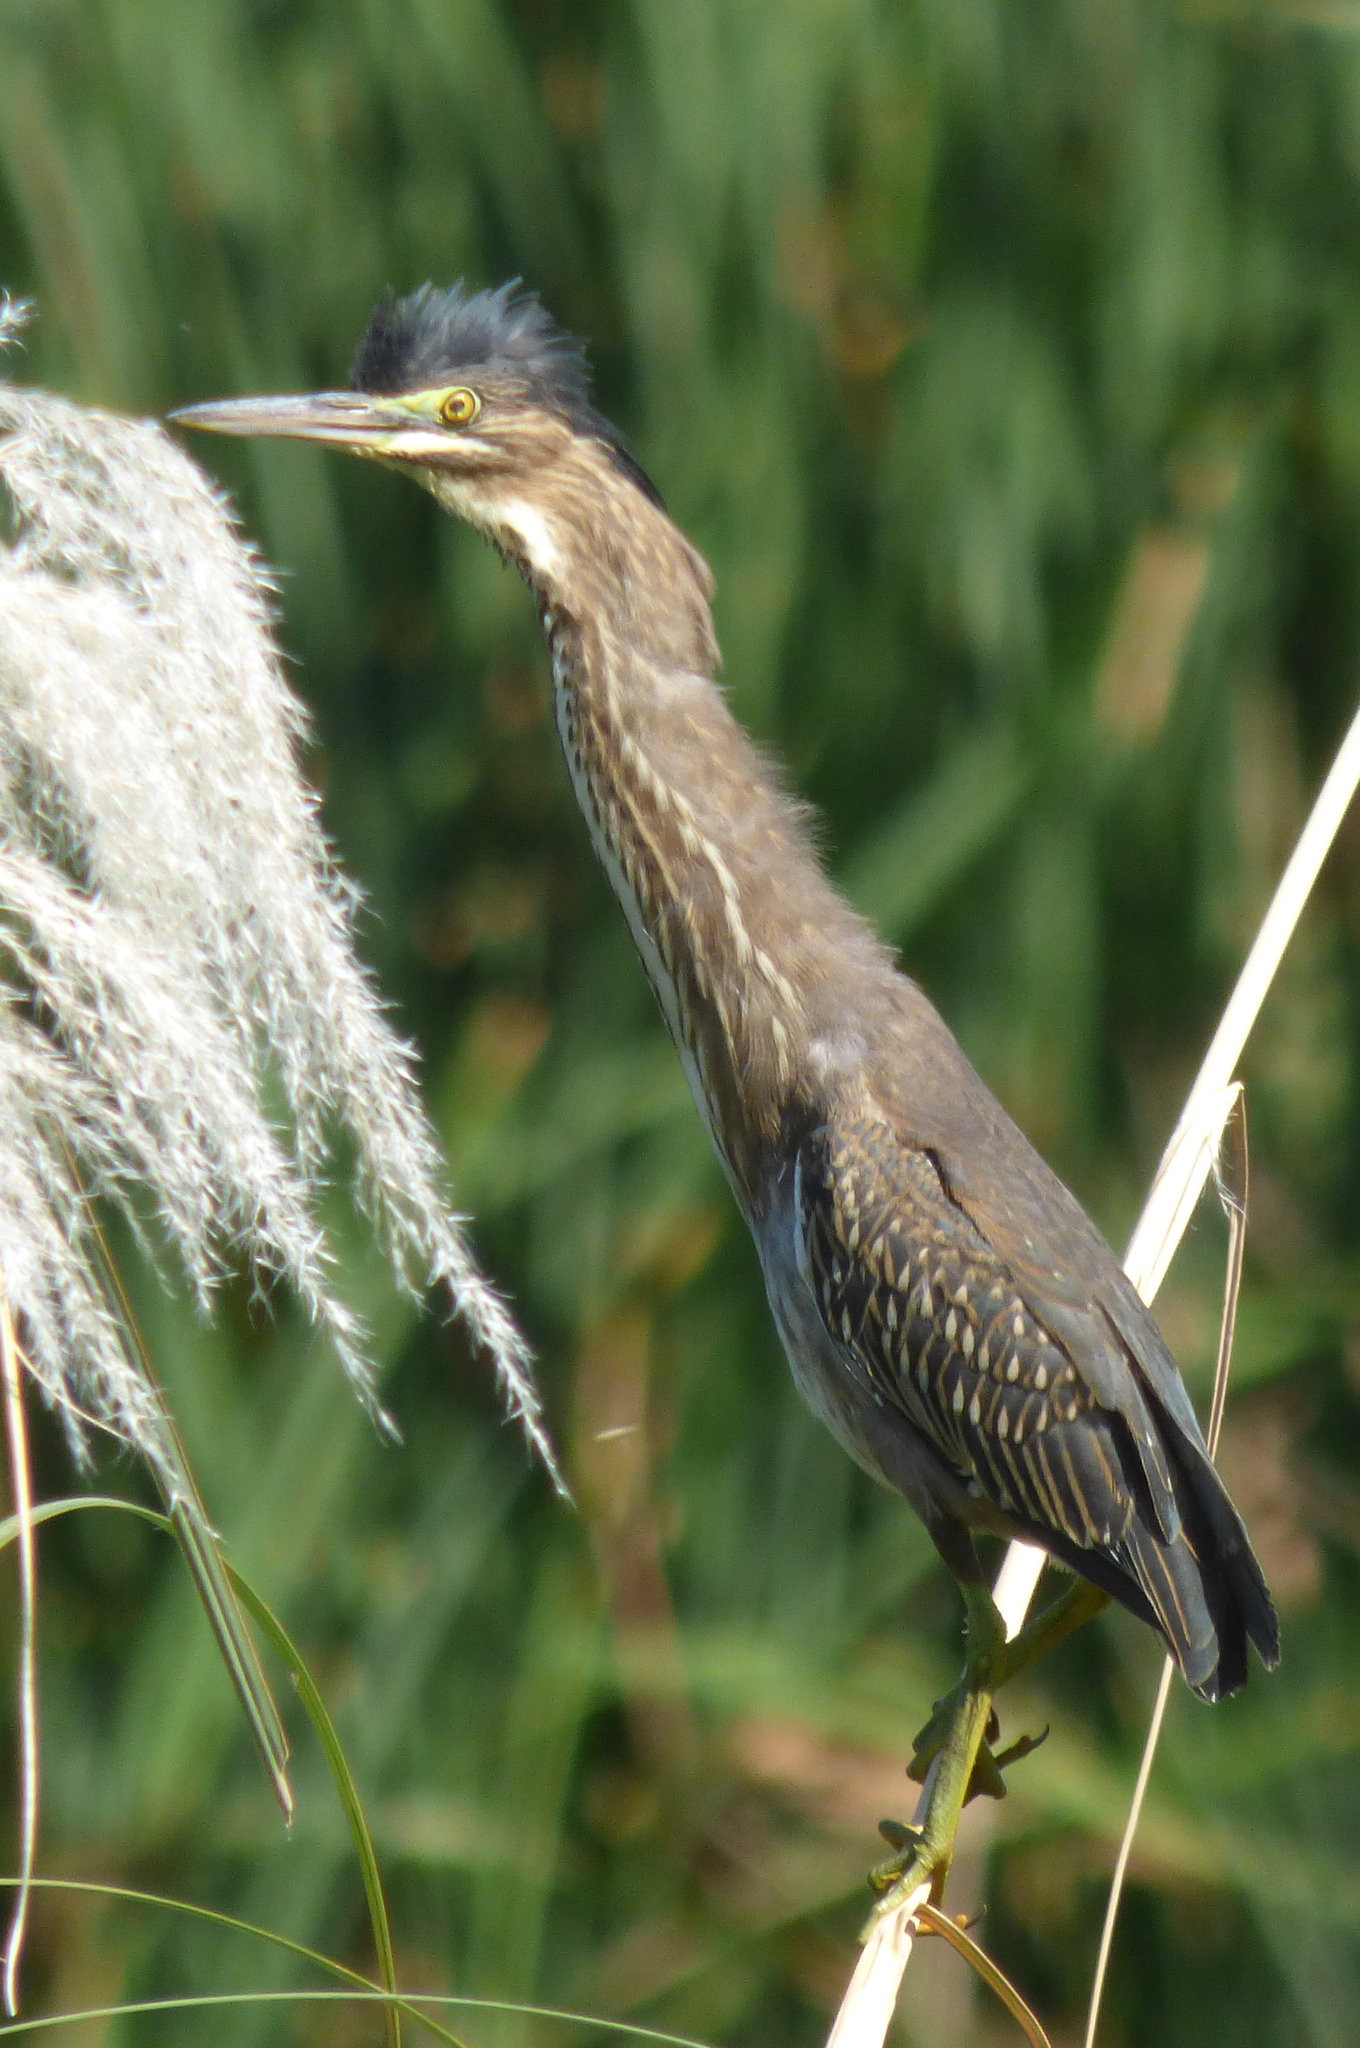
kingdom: Animalia
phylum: Chordata
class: Aves
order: Pelecaniformes
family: Ardeidae
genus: Butorides
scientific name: Butorides striata
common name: Striated heron
